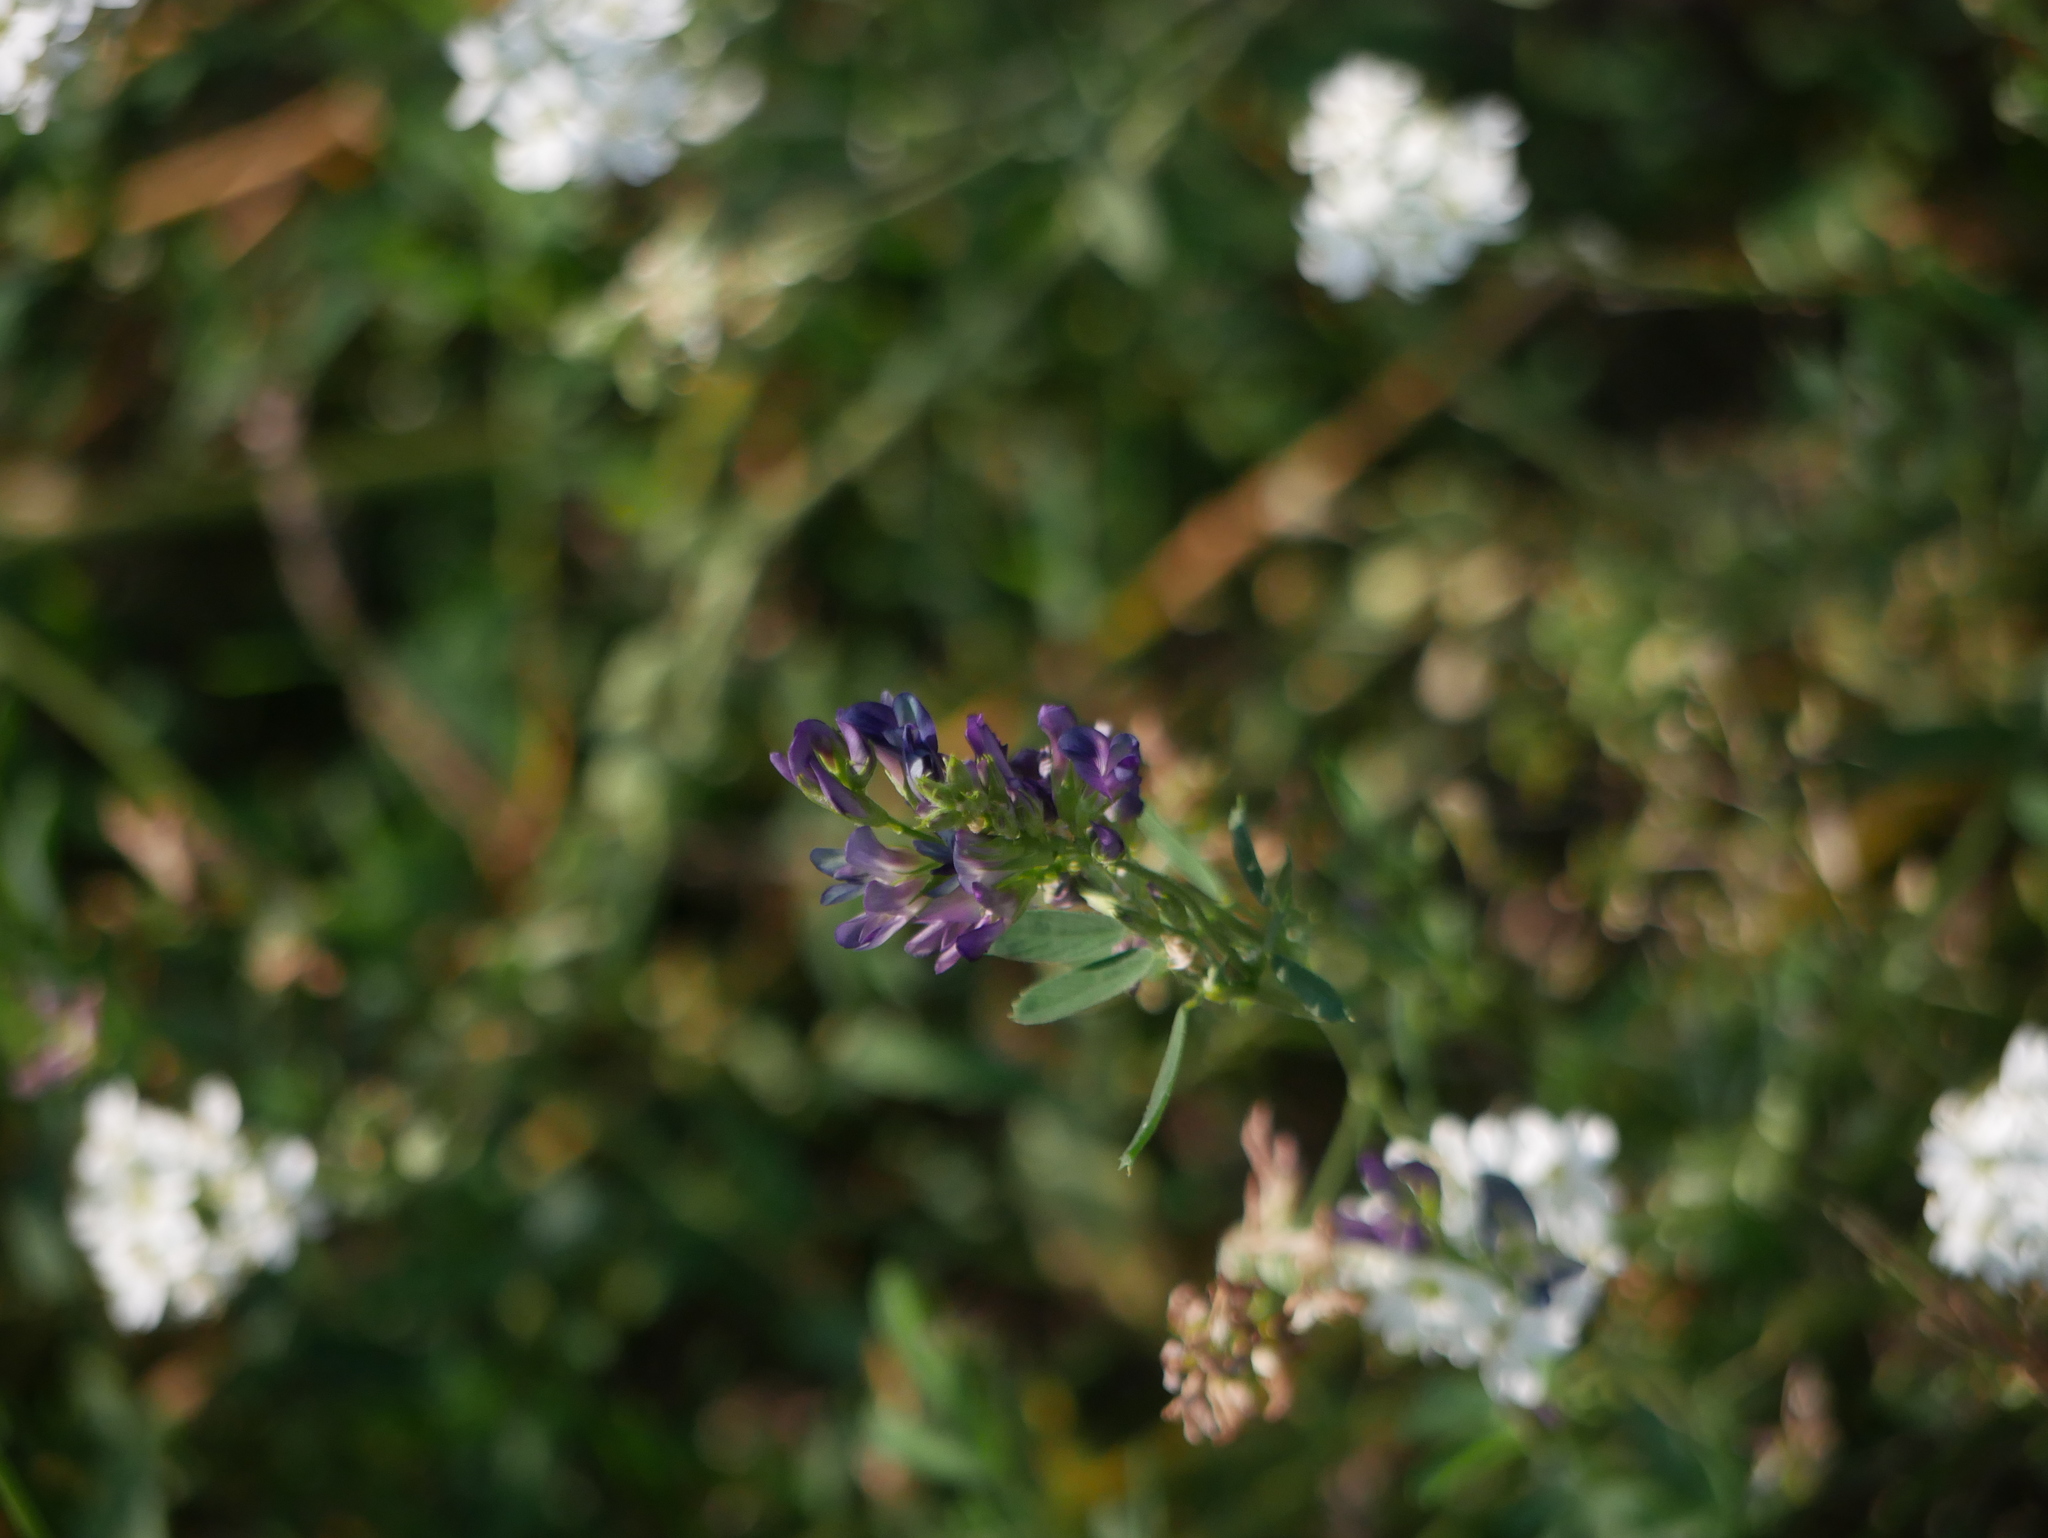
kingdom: Plantae
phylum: Tracheophyta
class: Magnoliopsida
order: Fabales
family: Fabaceae
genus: Medicago
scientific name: Medicago sativa
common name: Alfalfa
